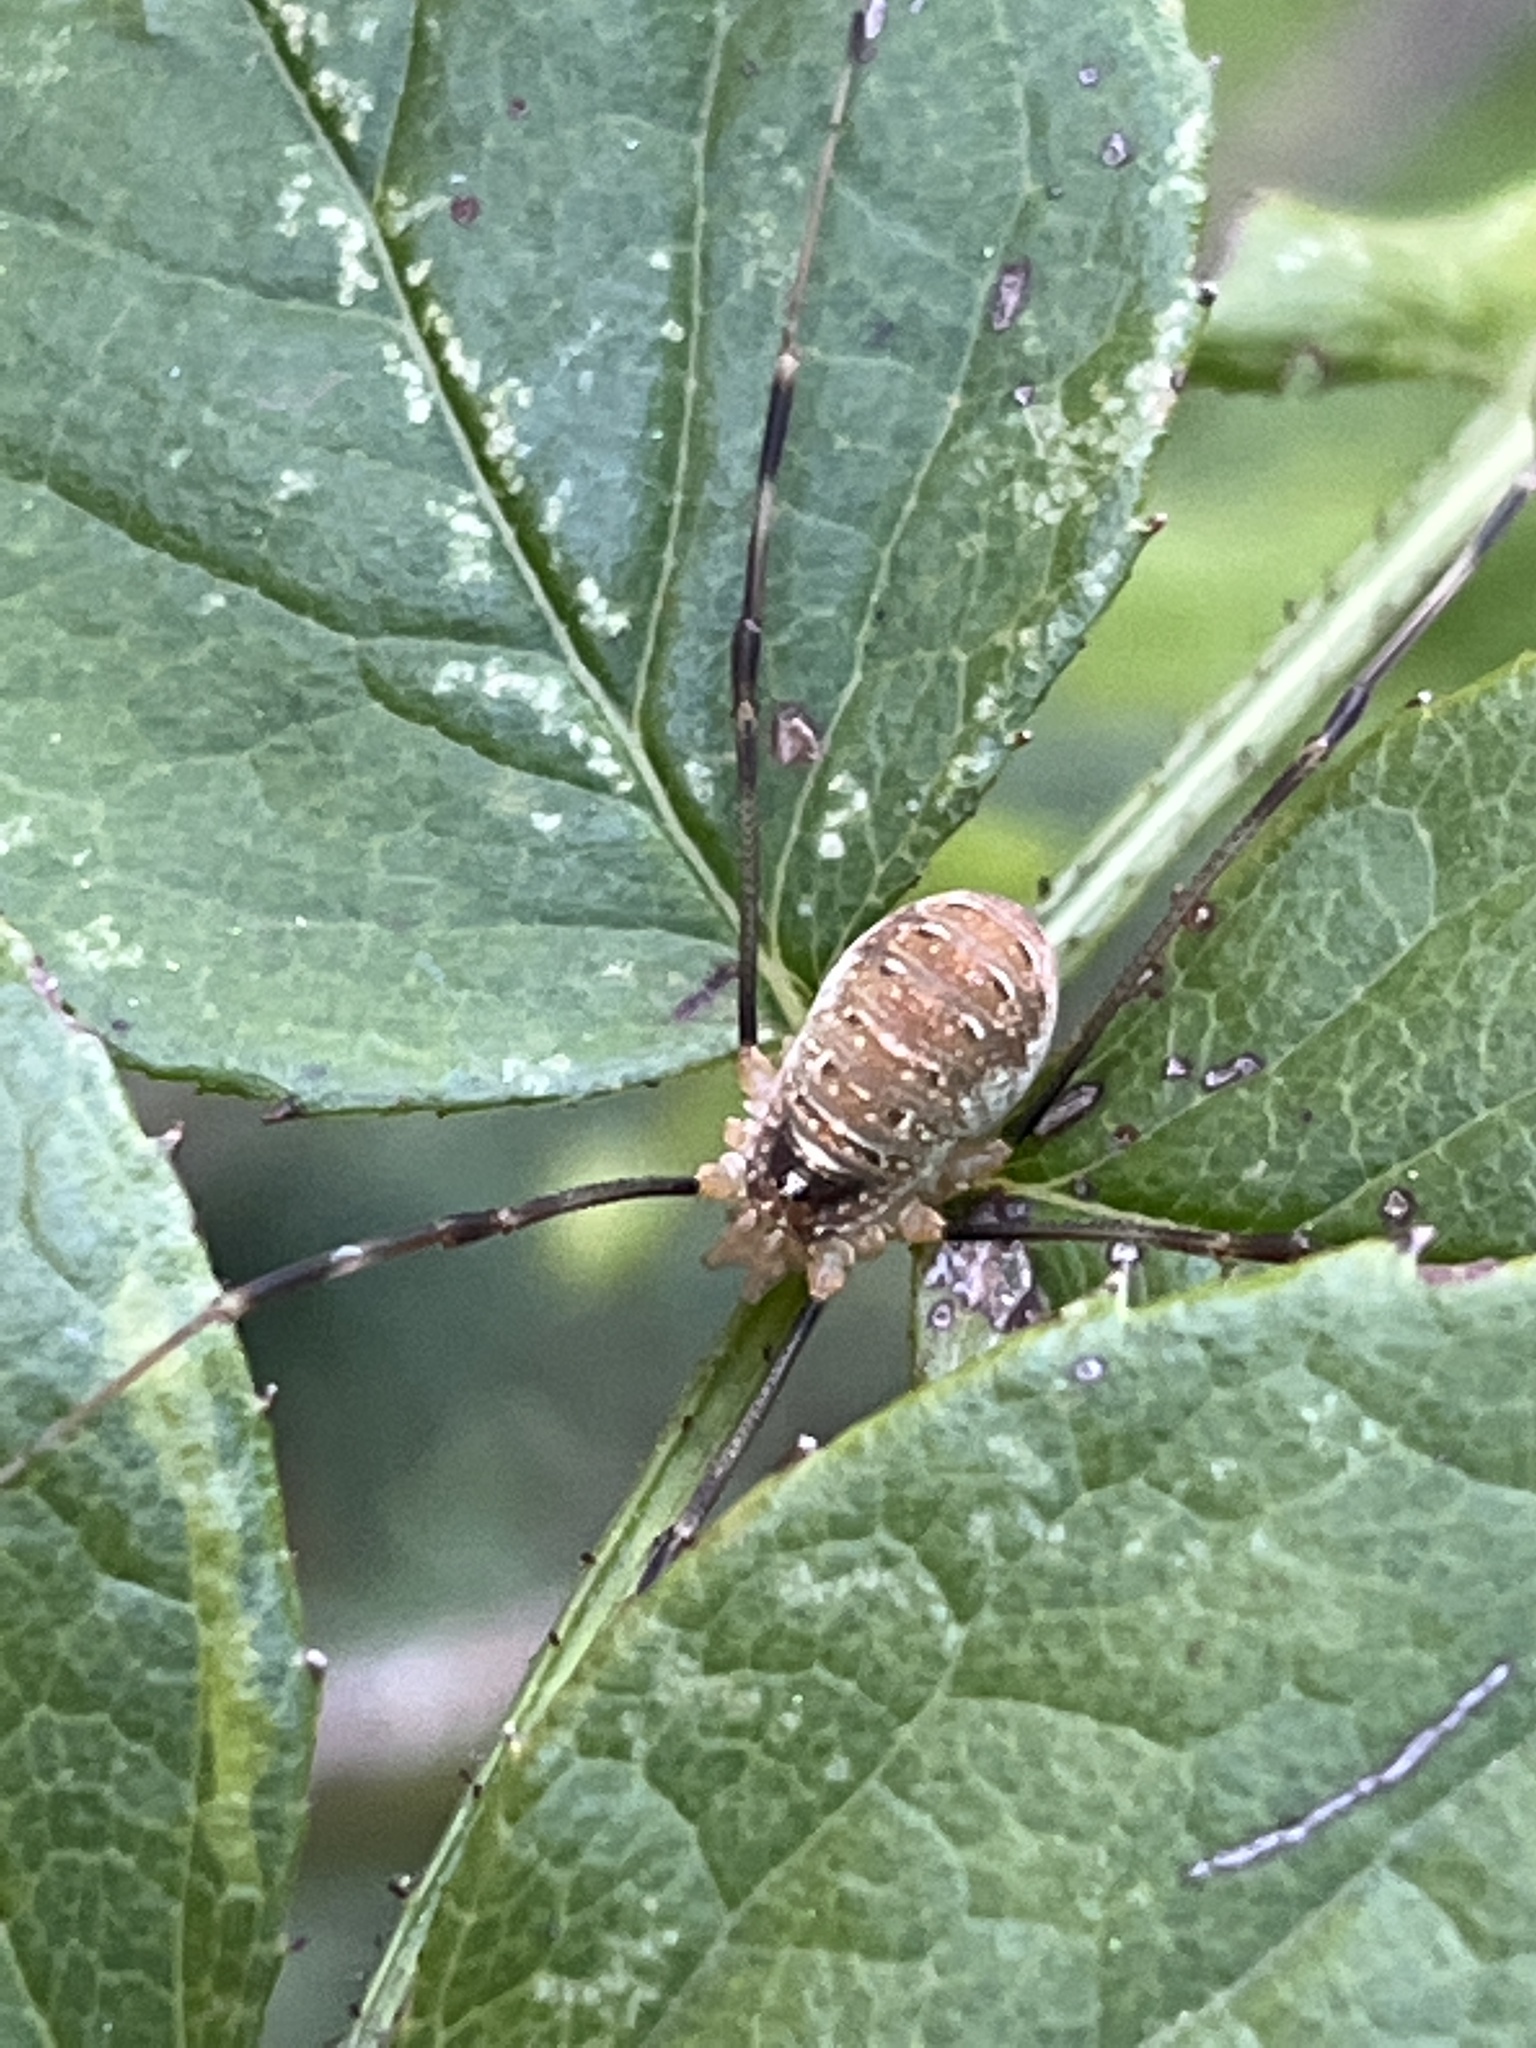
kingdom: Animalia
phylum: Arthropoda
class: Arachnida
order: Opiliones
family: Phalangiidae
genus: Opilio
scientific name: Opilio canestrinii
